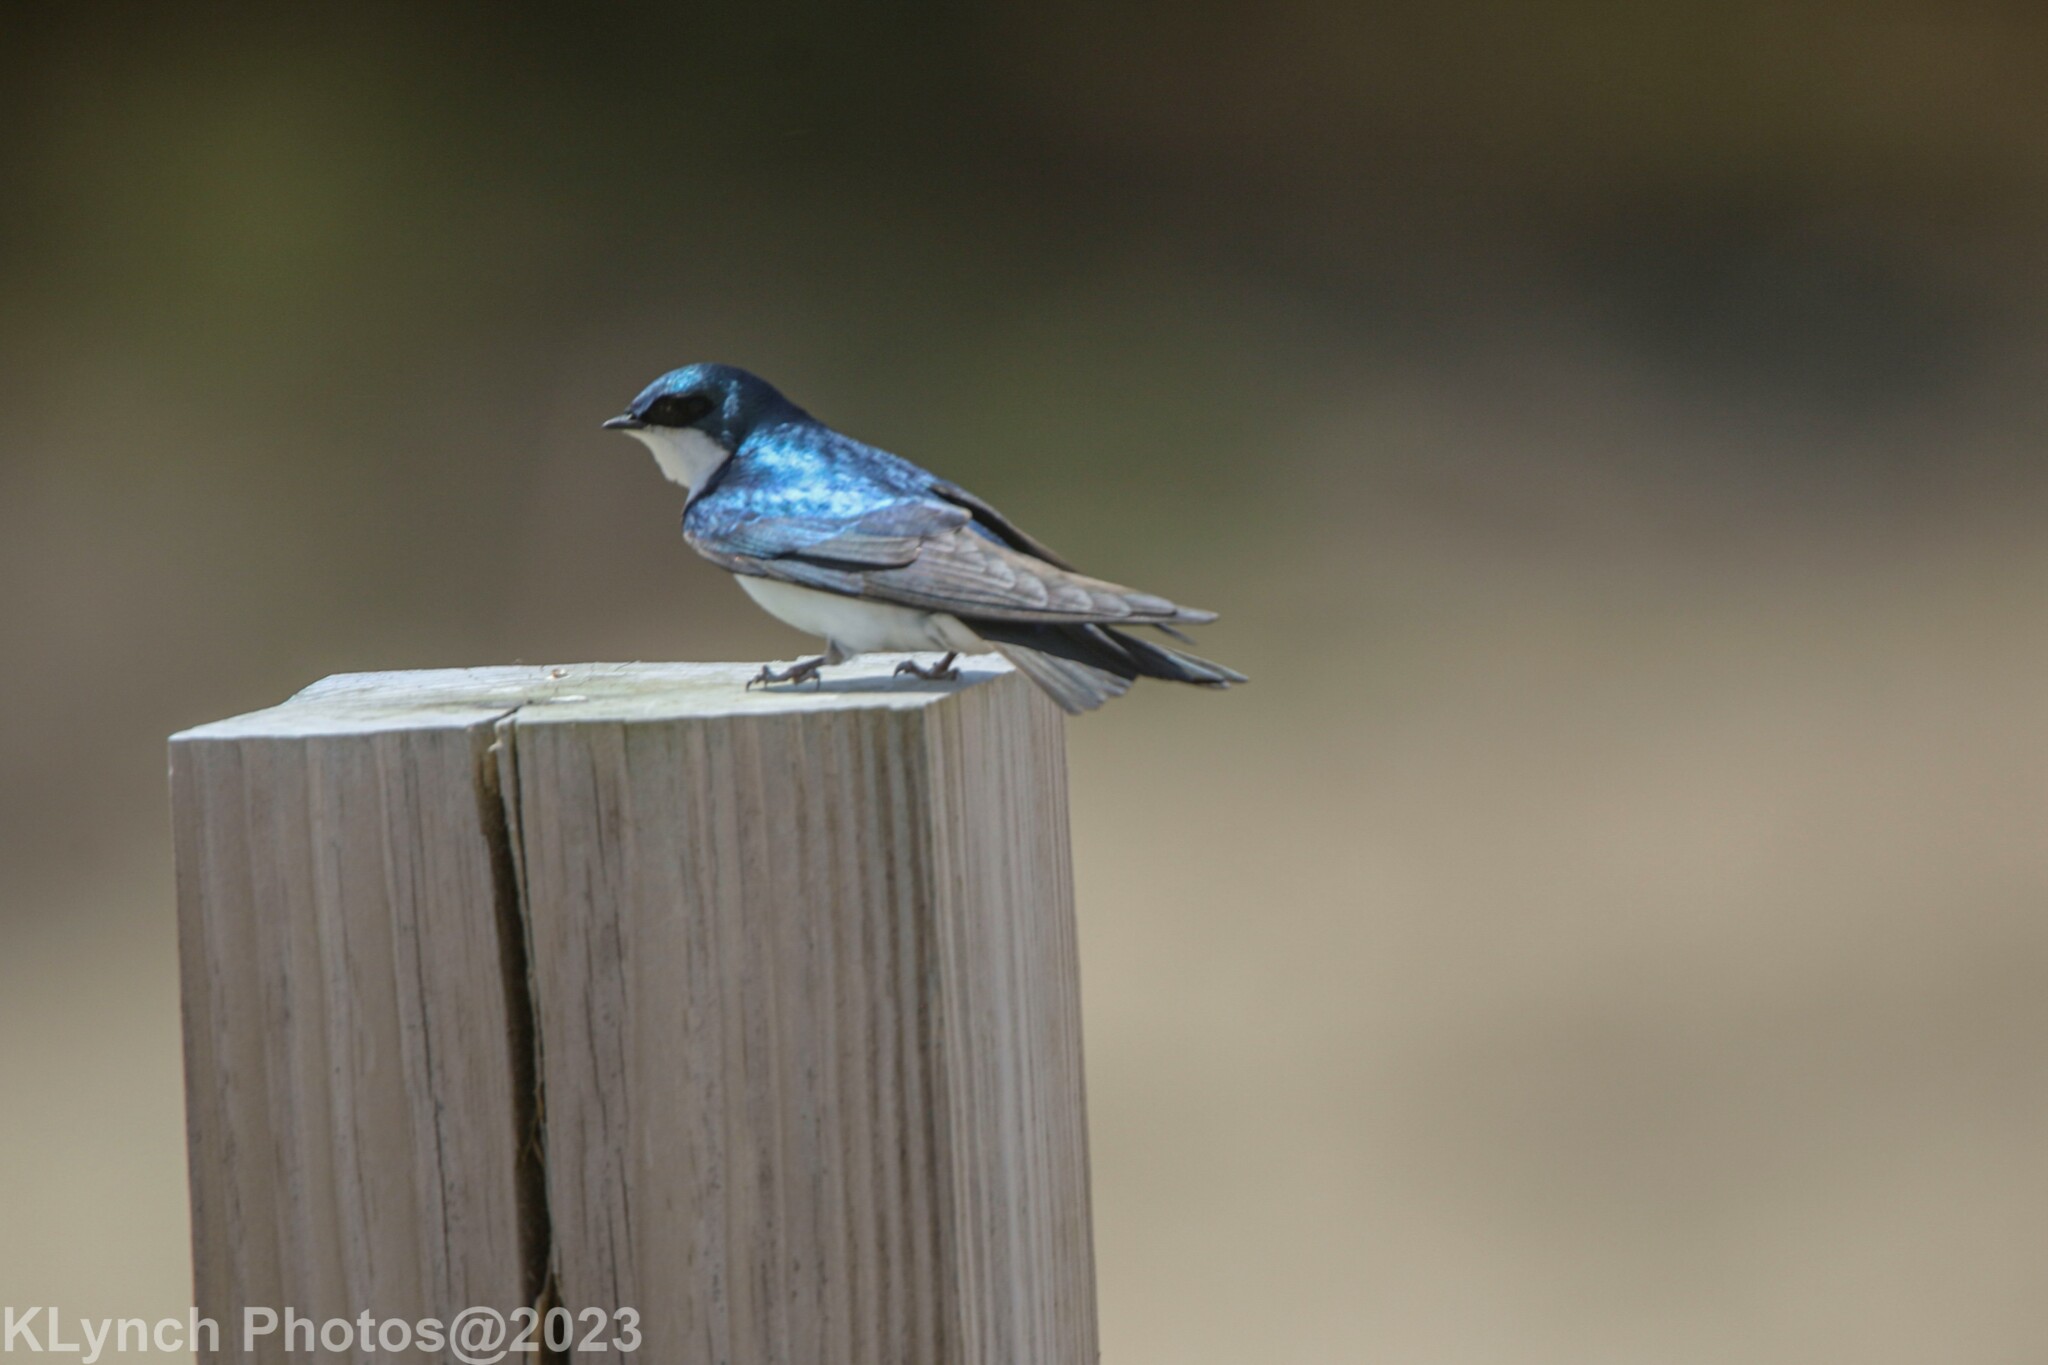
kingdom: Animalia
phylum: Chordata
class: Aves
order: Passeriformes
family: Hirundinidae
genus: Tachycineta
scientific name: Tachycineta bicolor
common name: Tree swallow
